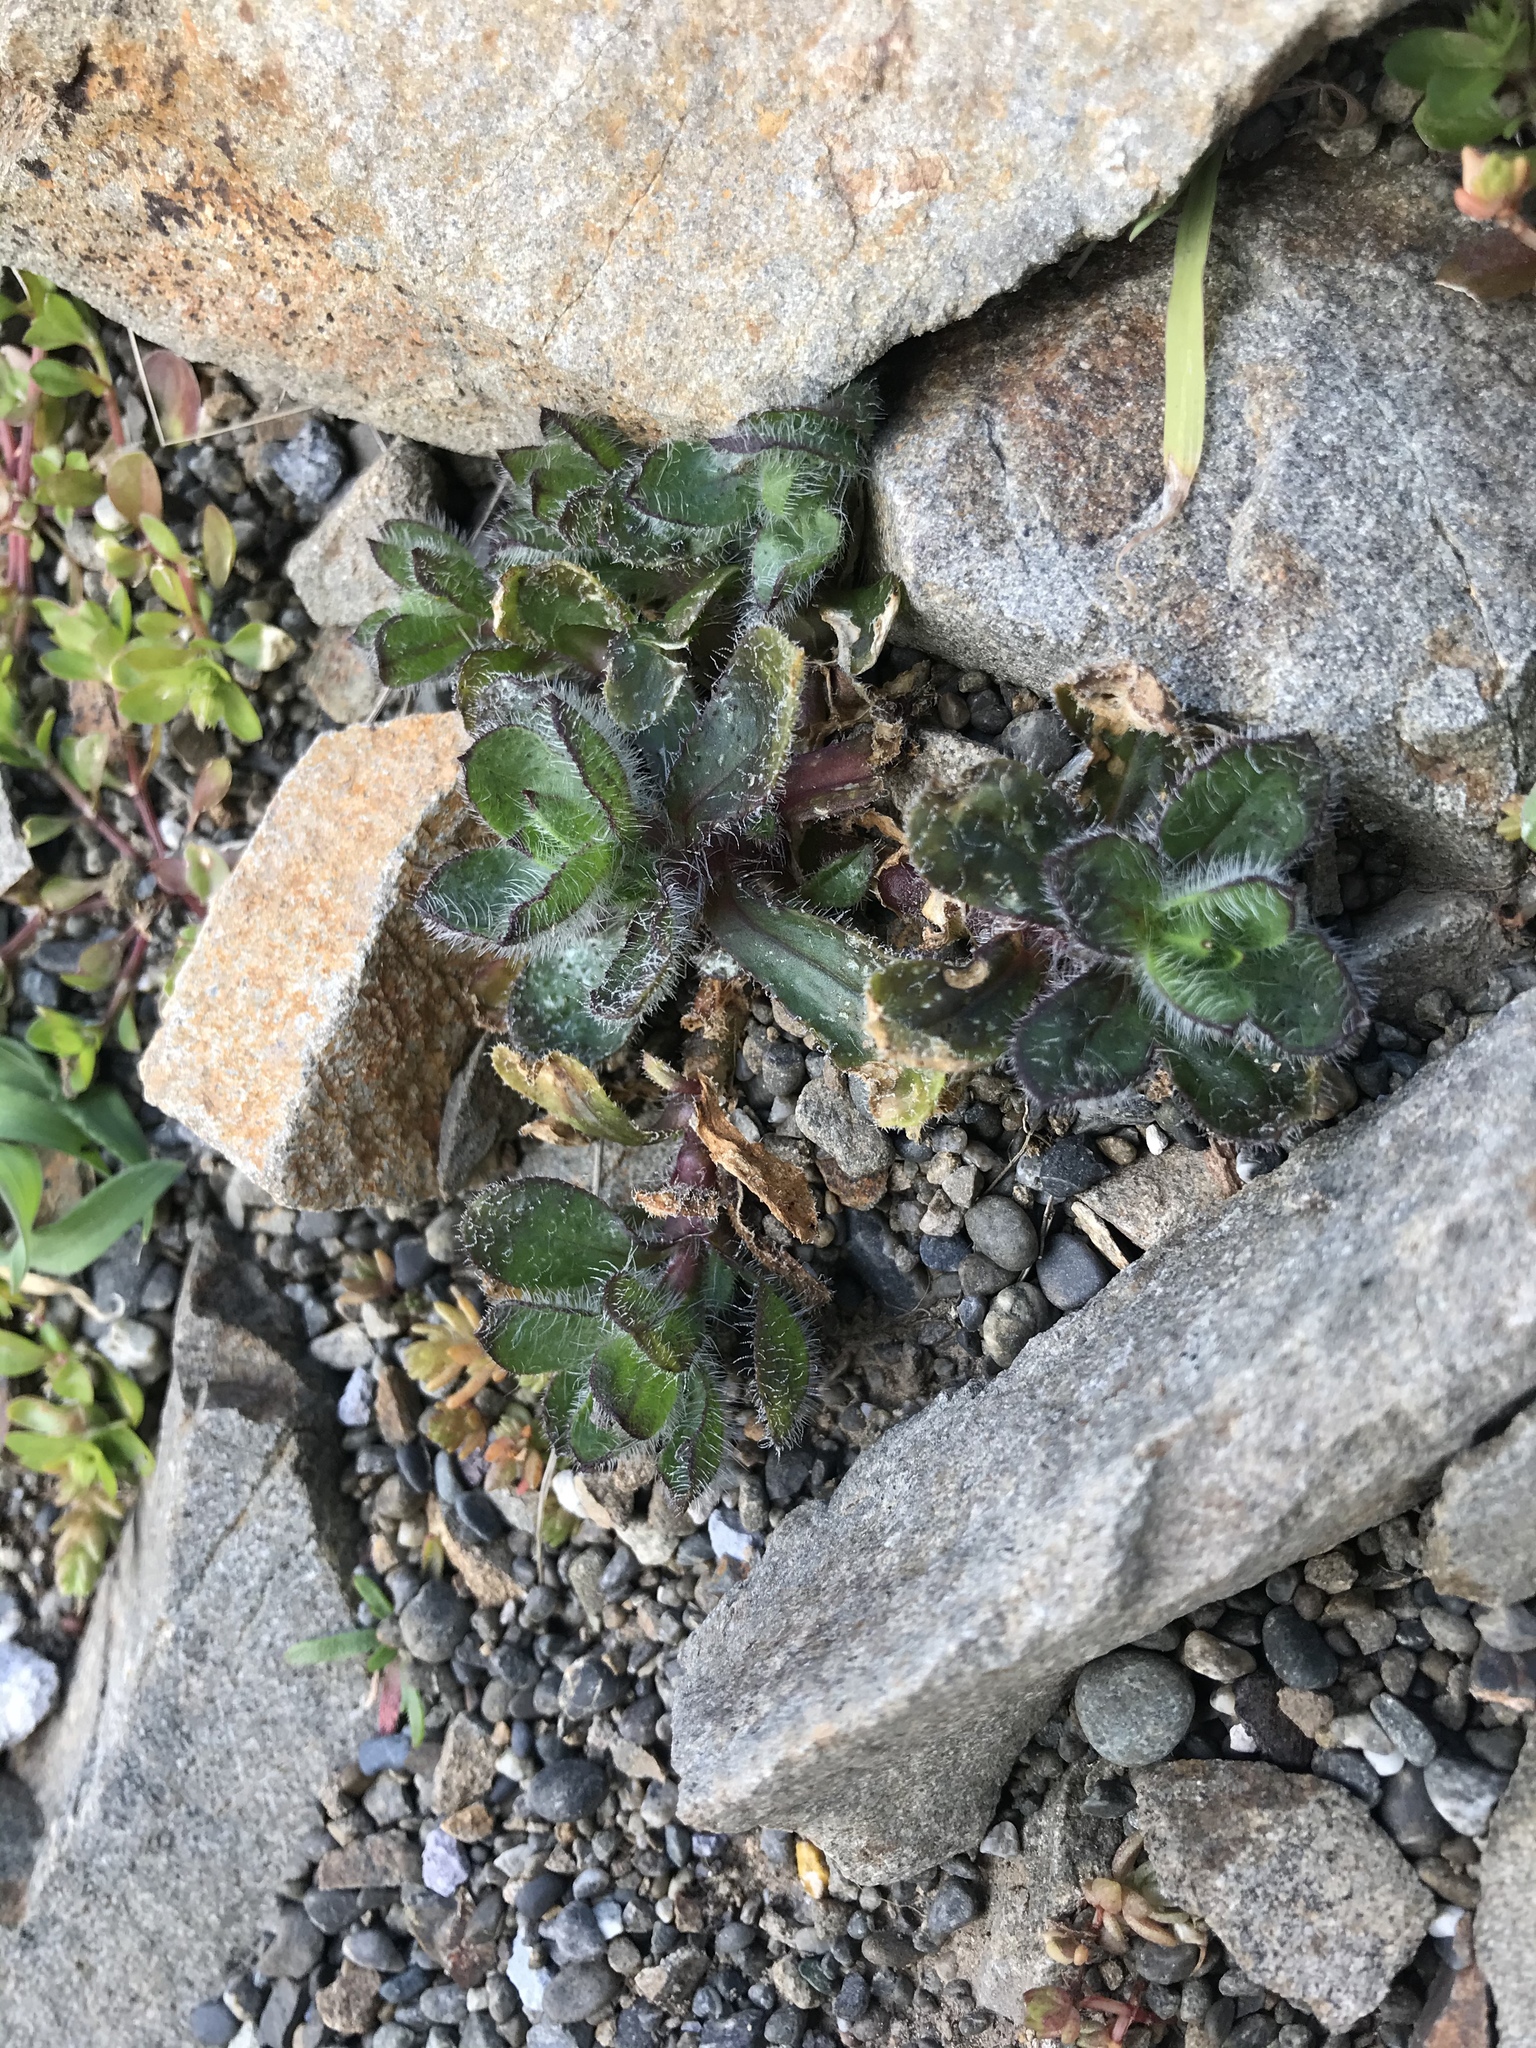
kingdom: Plantae
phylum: Tracheophyta
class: Magnoliopsida
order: Caryophyllales
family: Caryophyllaceae
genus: Cerastium
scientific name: Cerastium fontanum
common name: Common mouse-ear
